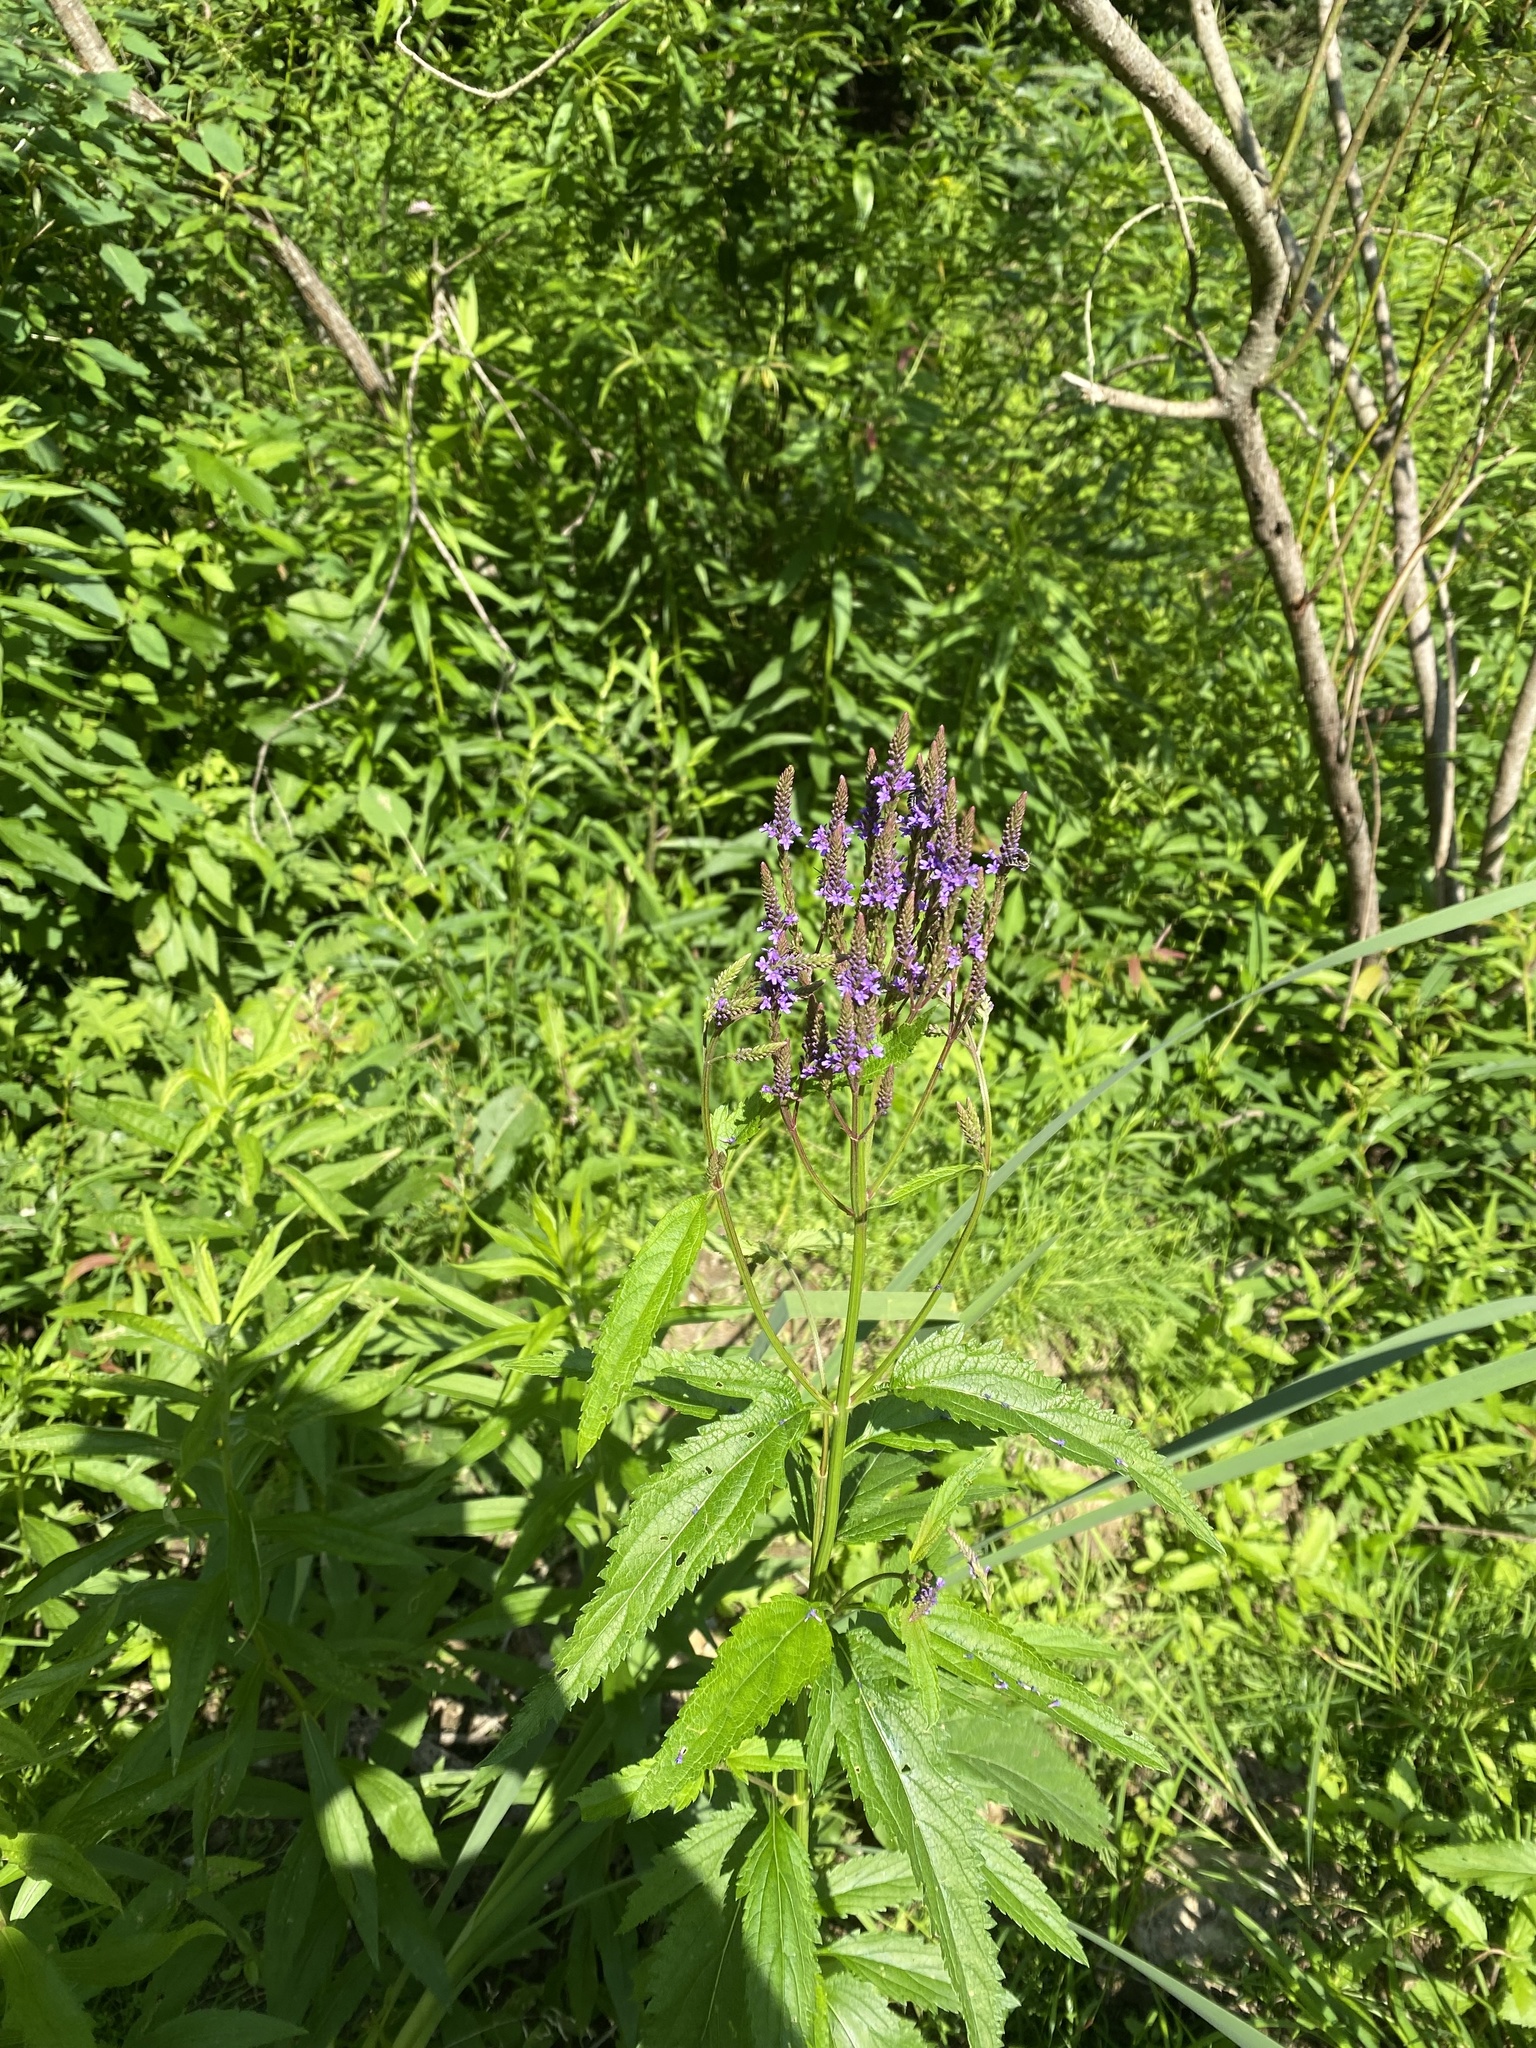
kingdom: Plantae
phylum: Tracheophyta
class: Magnoliopsida
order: Lamiales
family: Verbenaceae
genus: Verbena
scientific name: Verbena hastata
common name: American blue vervain
